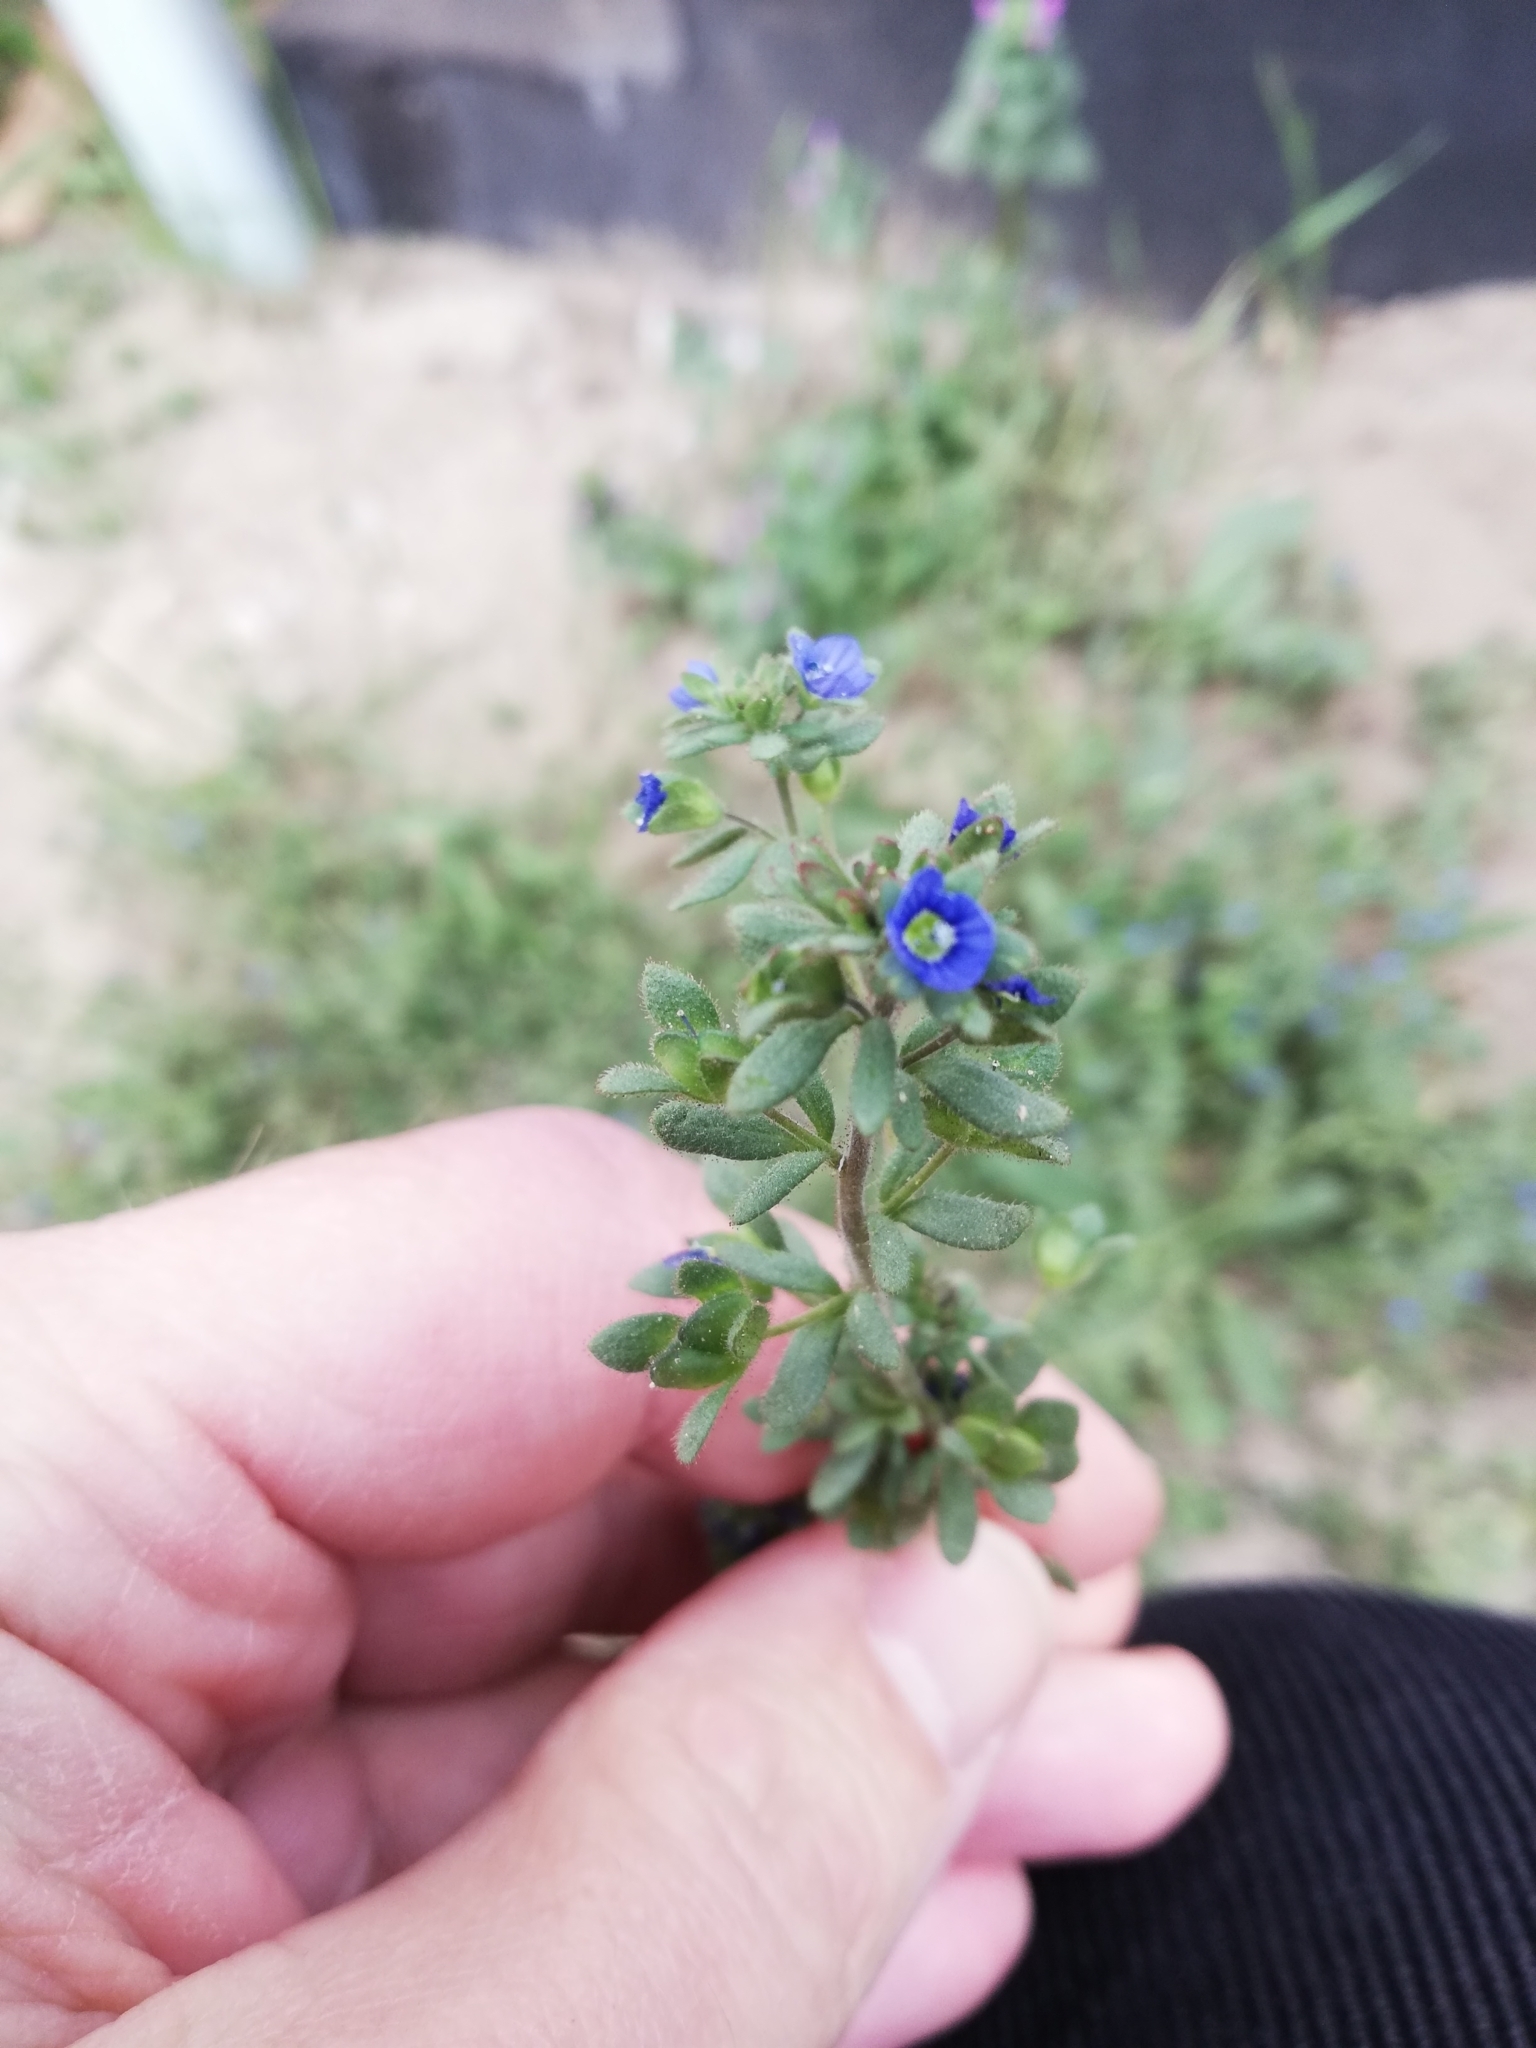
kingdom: Plantae
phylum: Tracheophyta
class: Magnoliopsida
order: Lamiales
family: Plantaginaceae
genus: Veronica
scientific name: Veronica triphyllos
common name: Fingered speedwell
